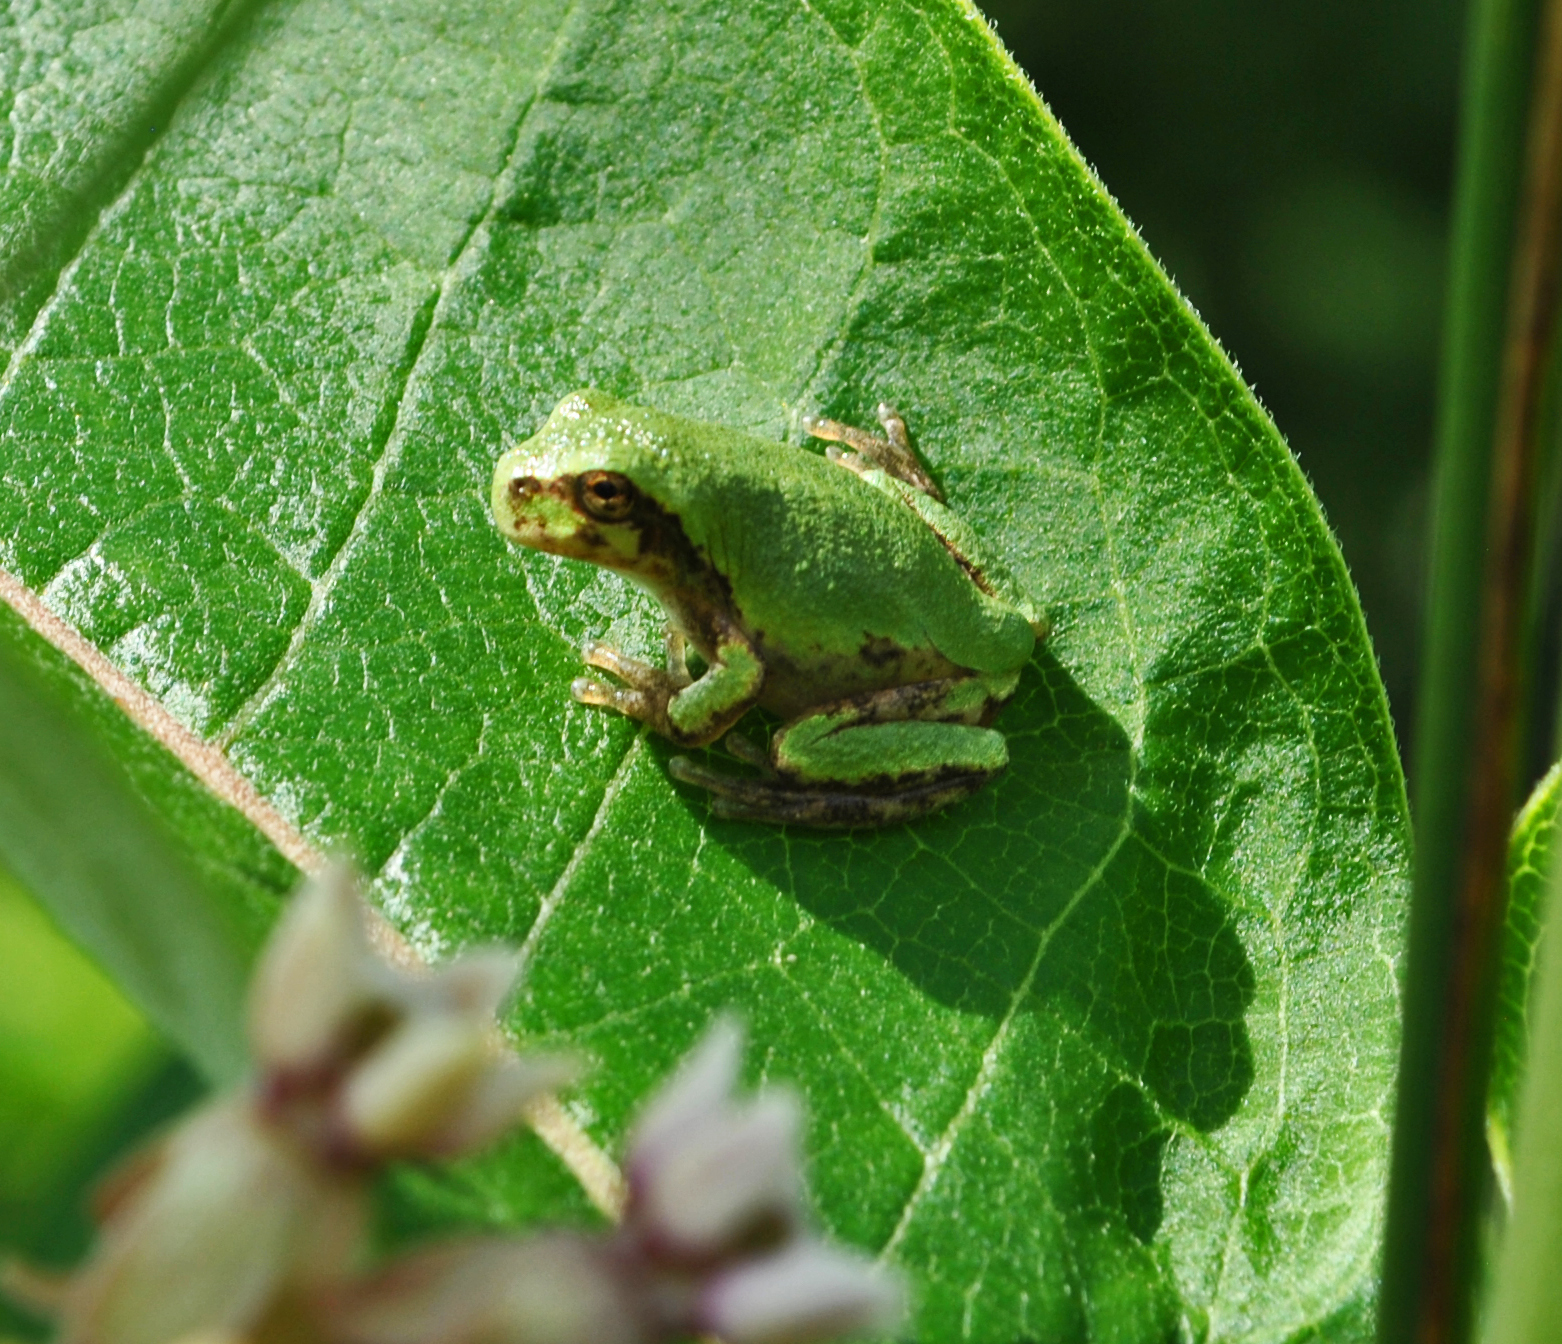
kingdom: Animalia
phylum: Chordata
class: Amphibia
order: Anura
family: Hylidae
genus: Hyla
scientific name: Hyla
